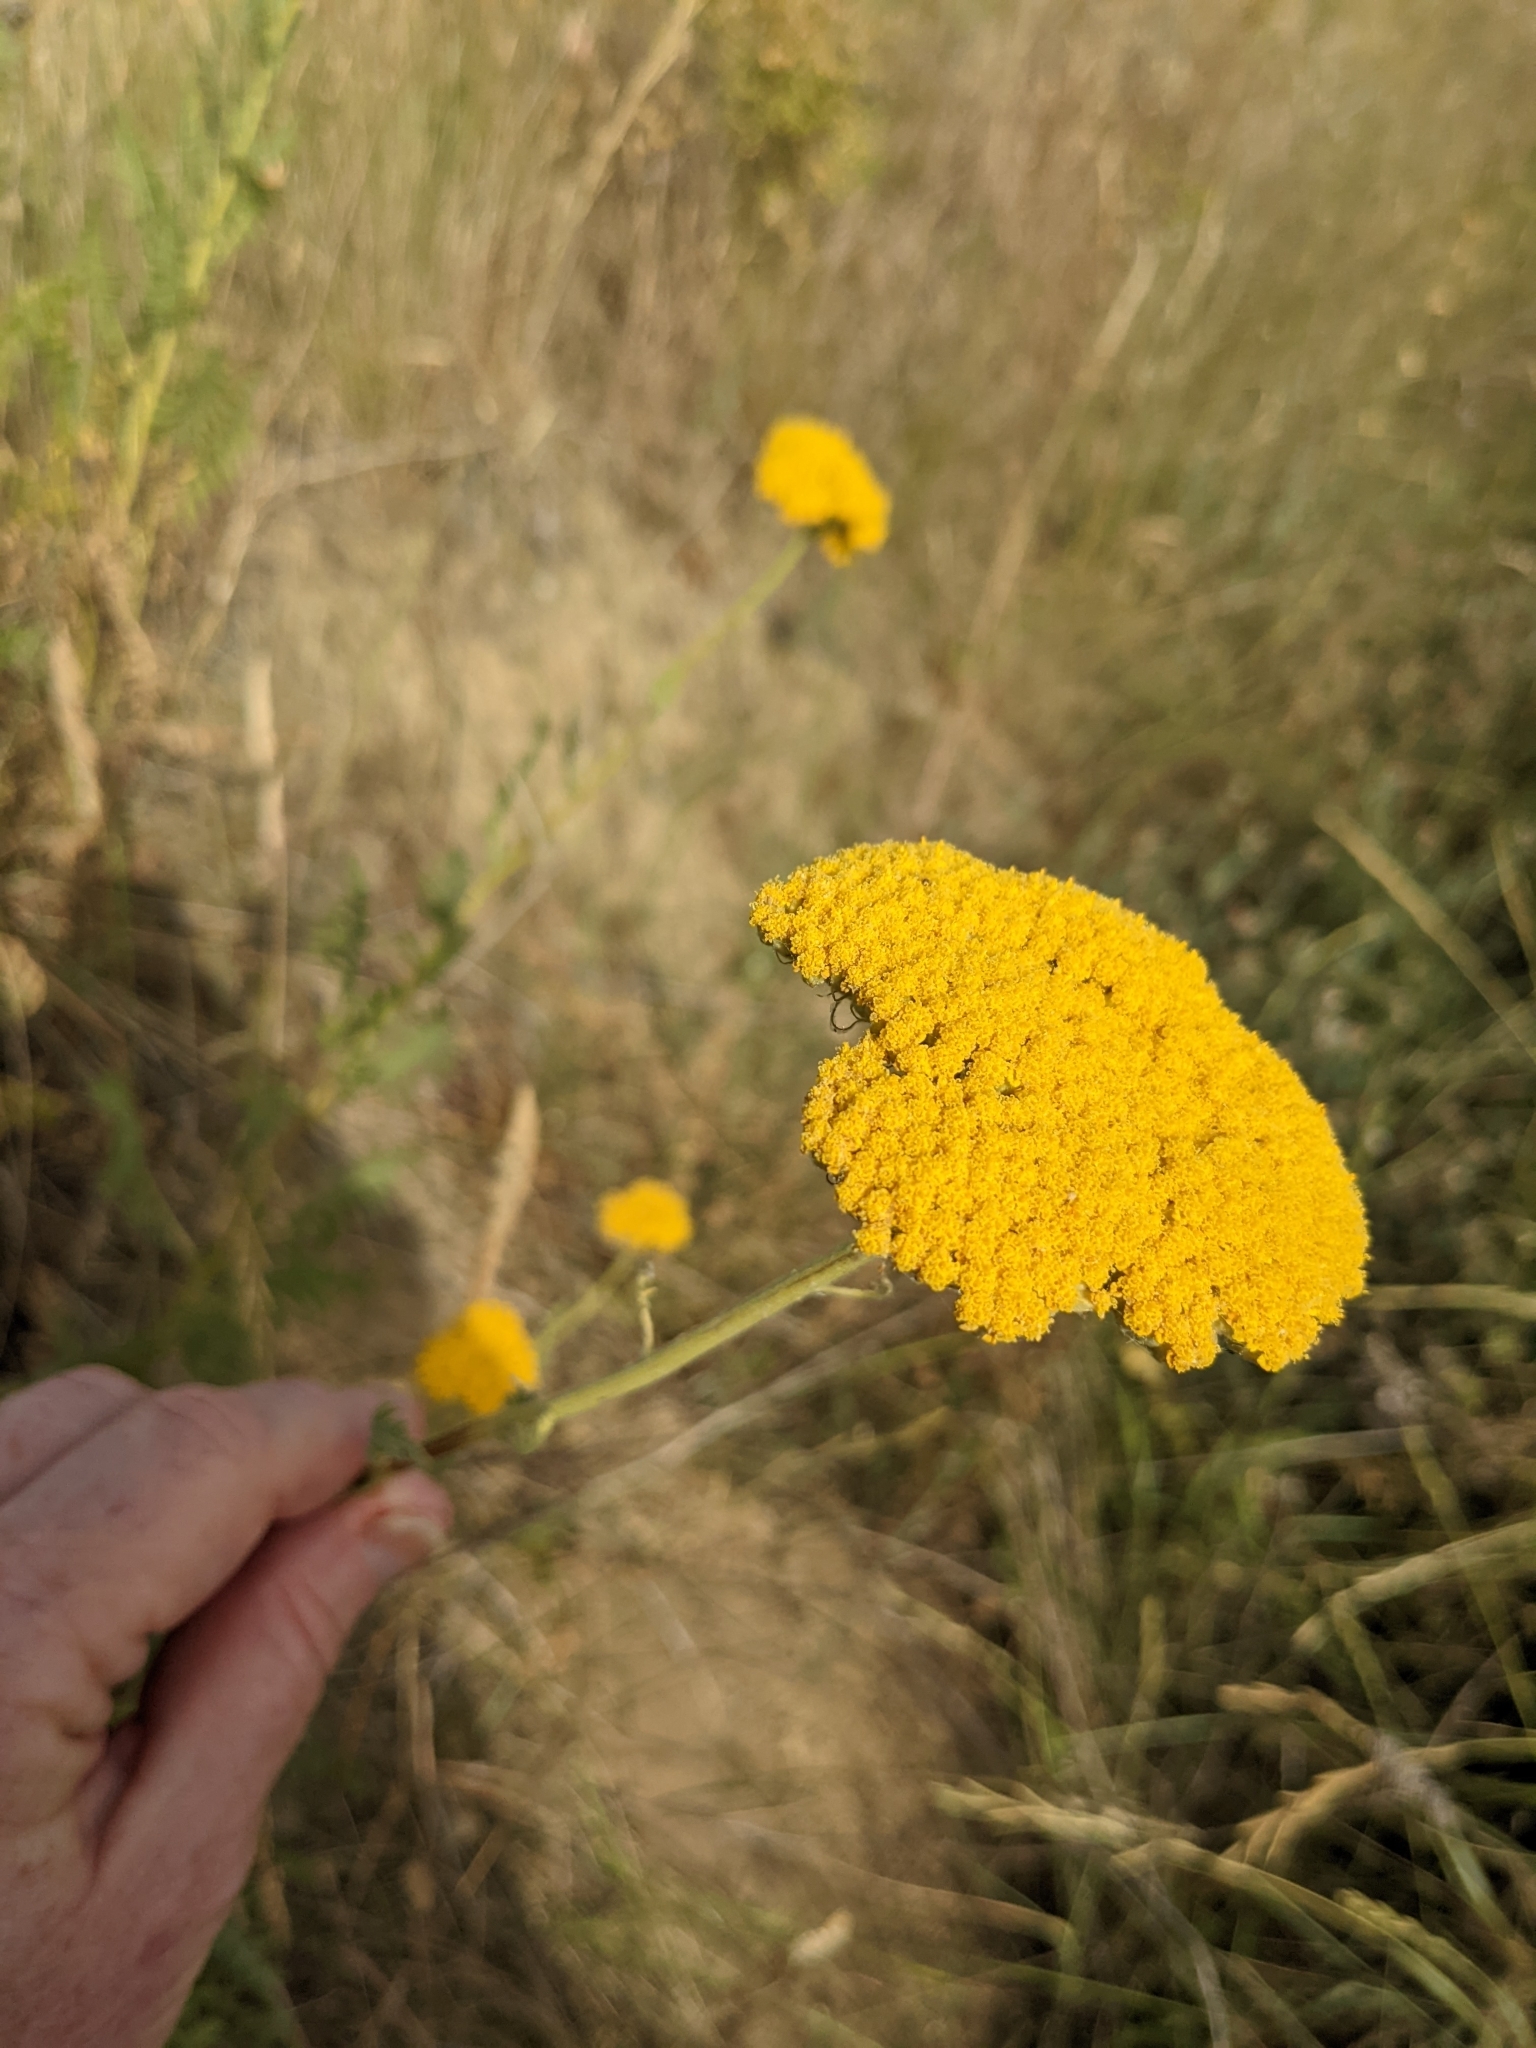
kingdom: Plantae
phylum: Tracheophyta
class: Magnoliopsida
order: Asterales
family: Asteraceae
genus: Achillea
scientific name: Achillea filipendulina
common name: Fernleaf yarrow
